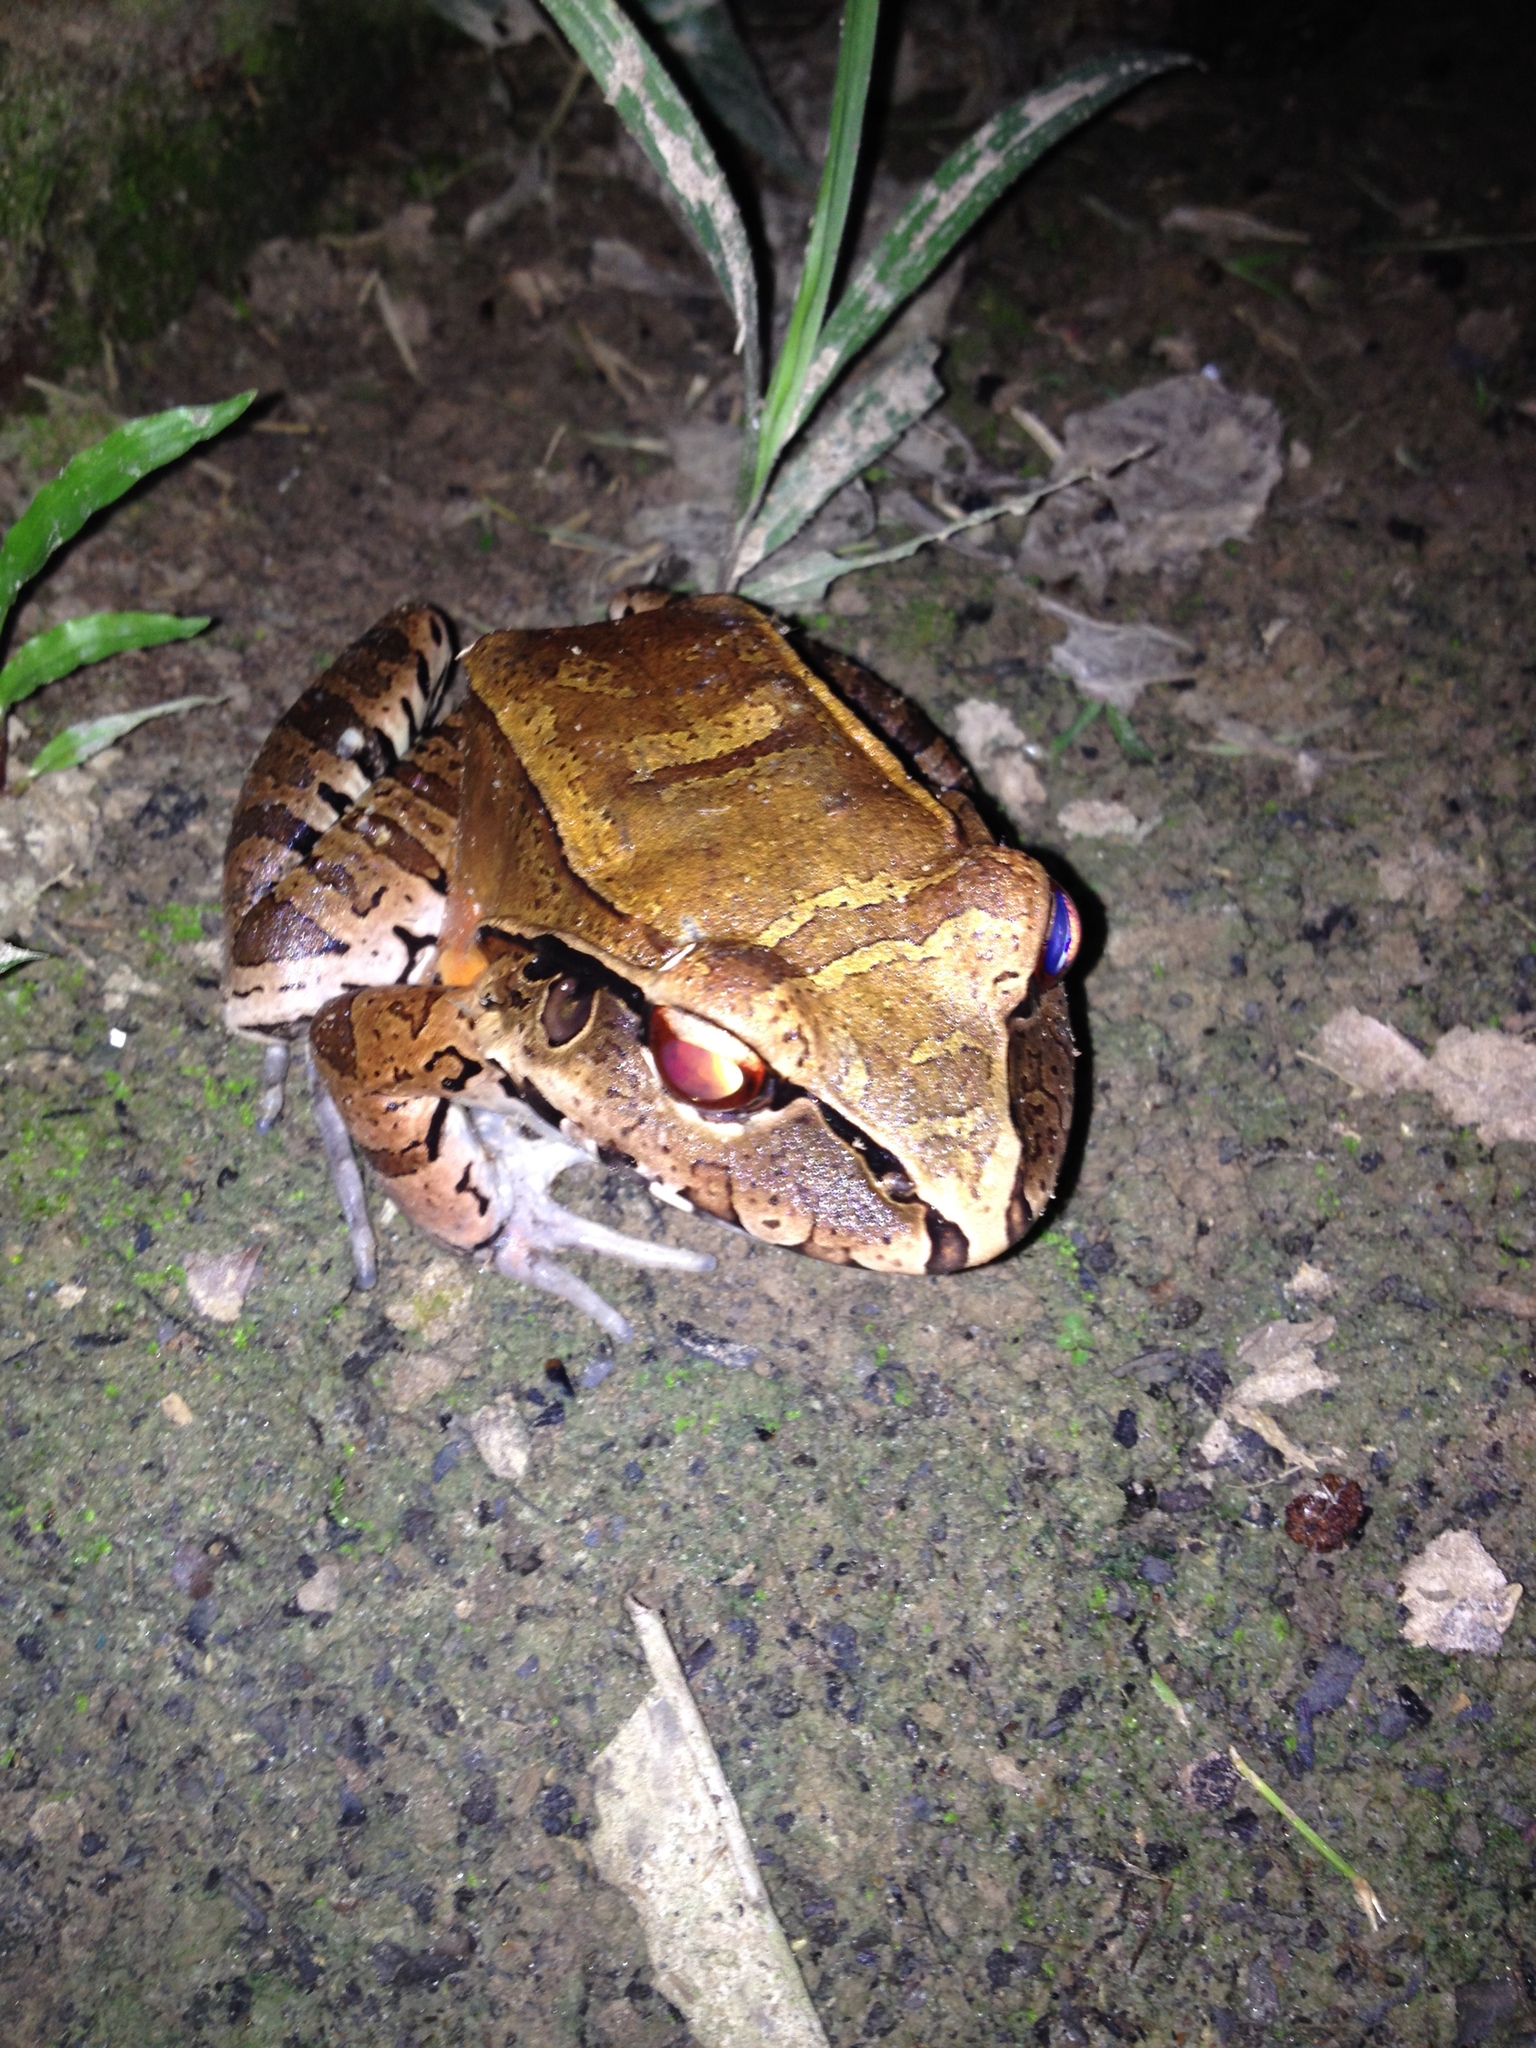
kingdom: Animalia
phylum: Chordata
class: Amphibia
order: Anura
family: Leptodactylidae
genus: Leptodactylus
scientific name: Leptodactylus pentadactylus
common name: Smoky jungle frog
